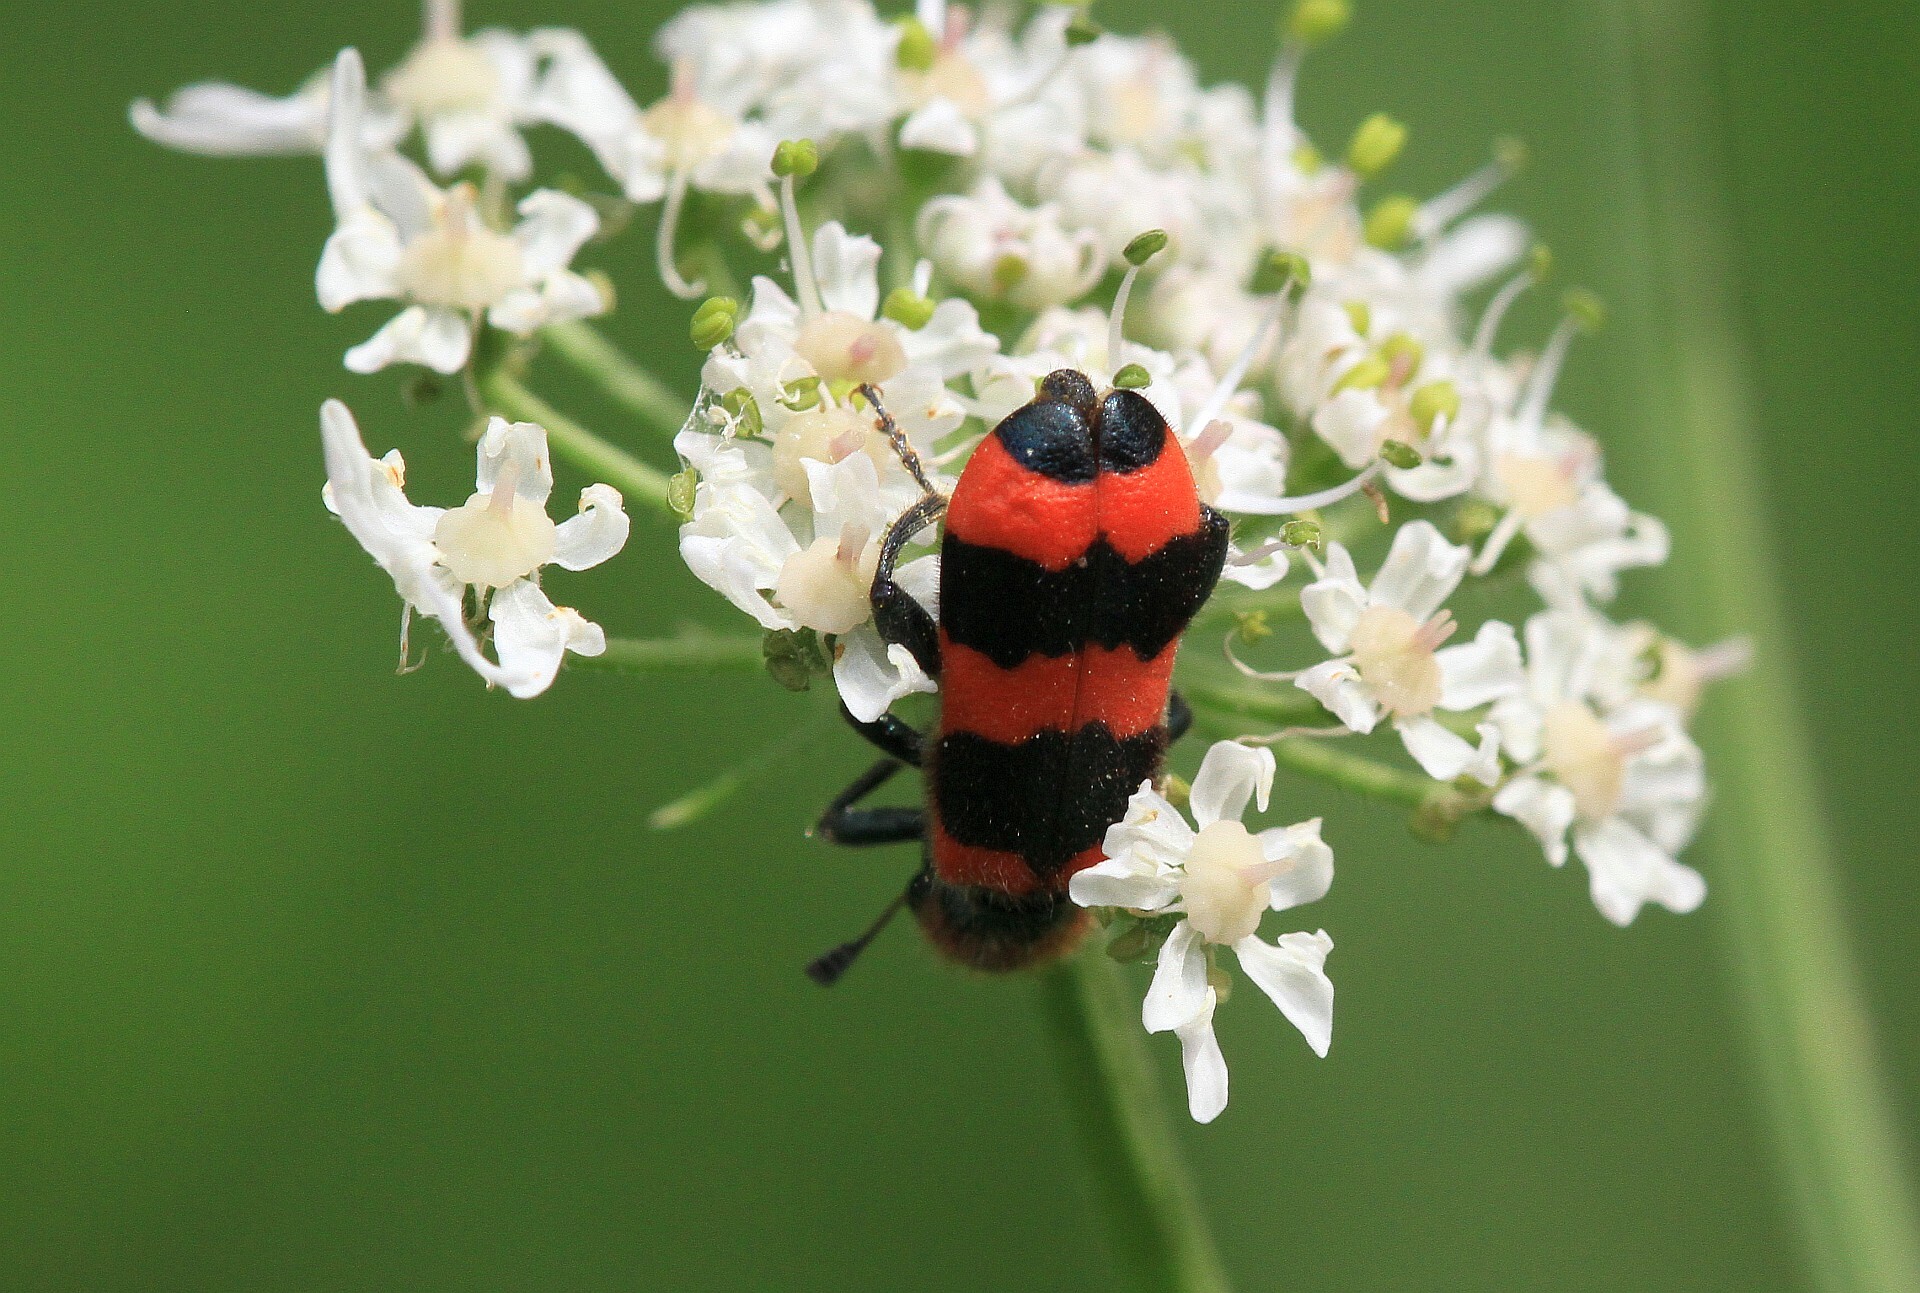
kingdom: Animalia
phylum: Arthropoda
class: Insecta
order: Coleoptera
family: Cleridae
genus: Trichodes
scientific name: Trichodes apiarius
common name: Bee-eating beetle
